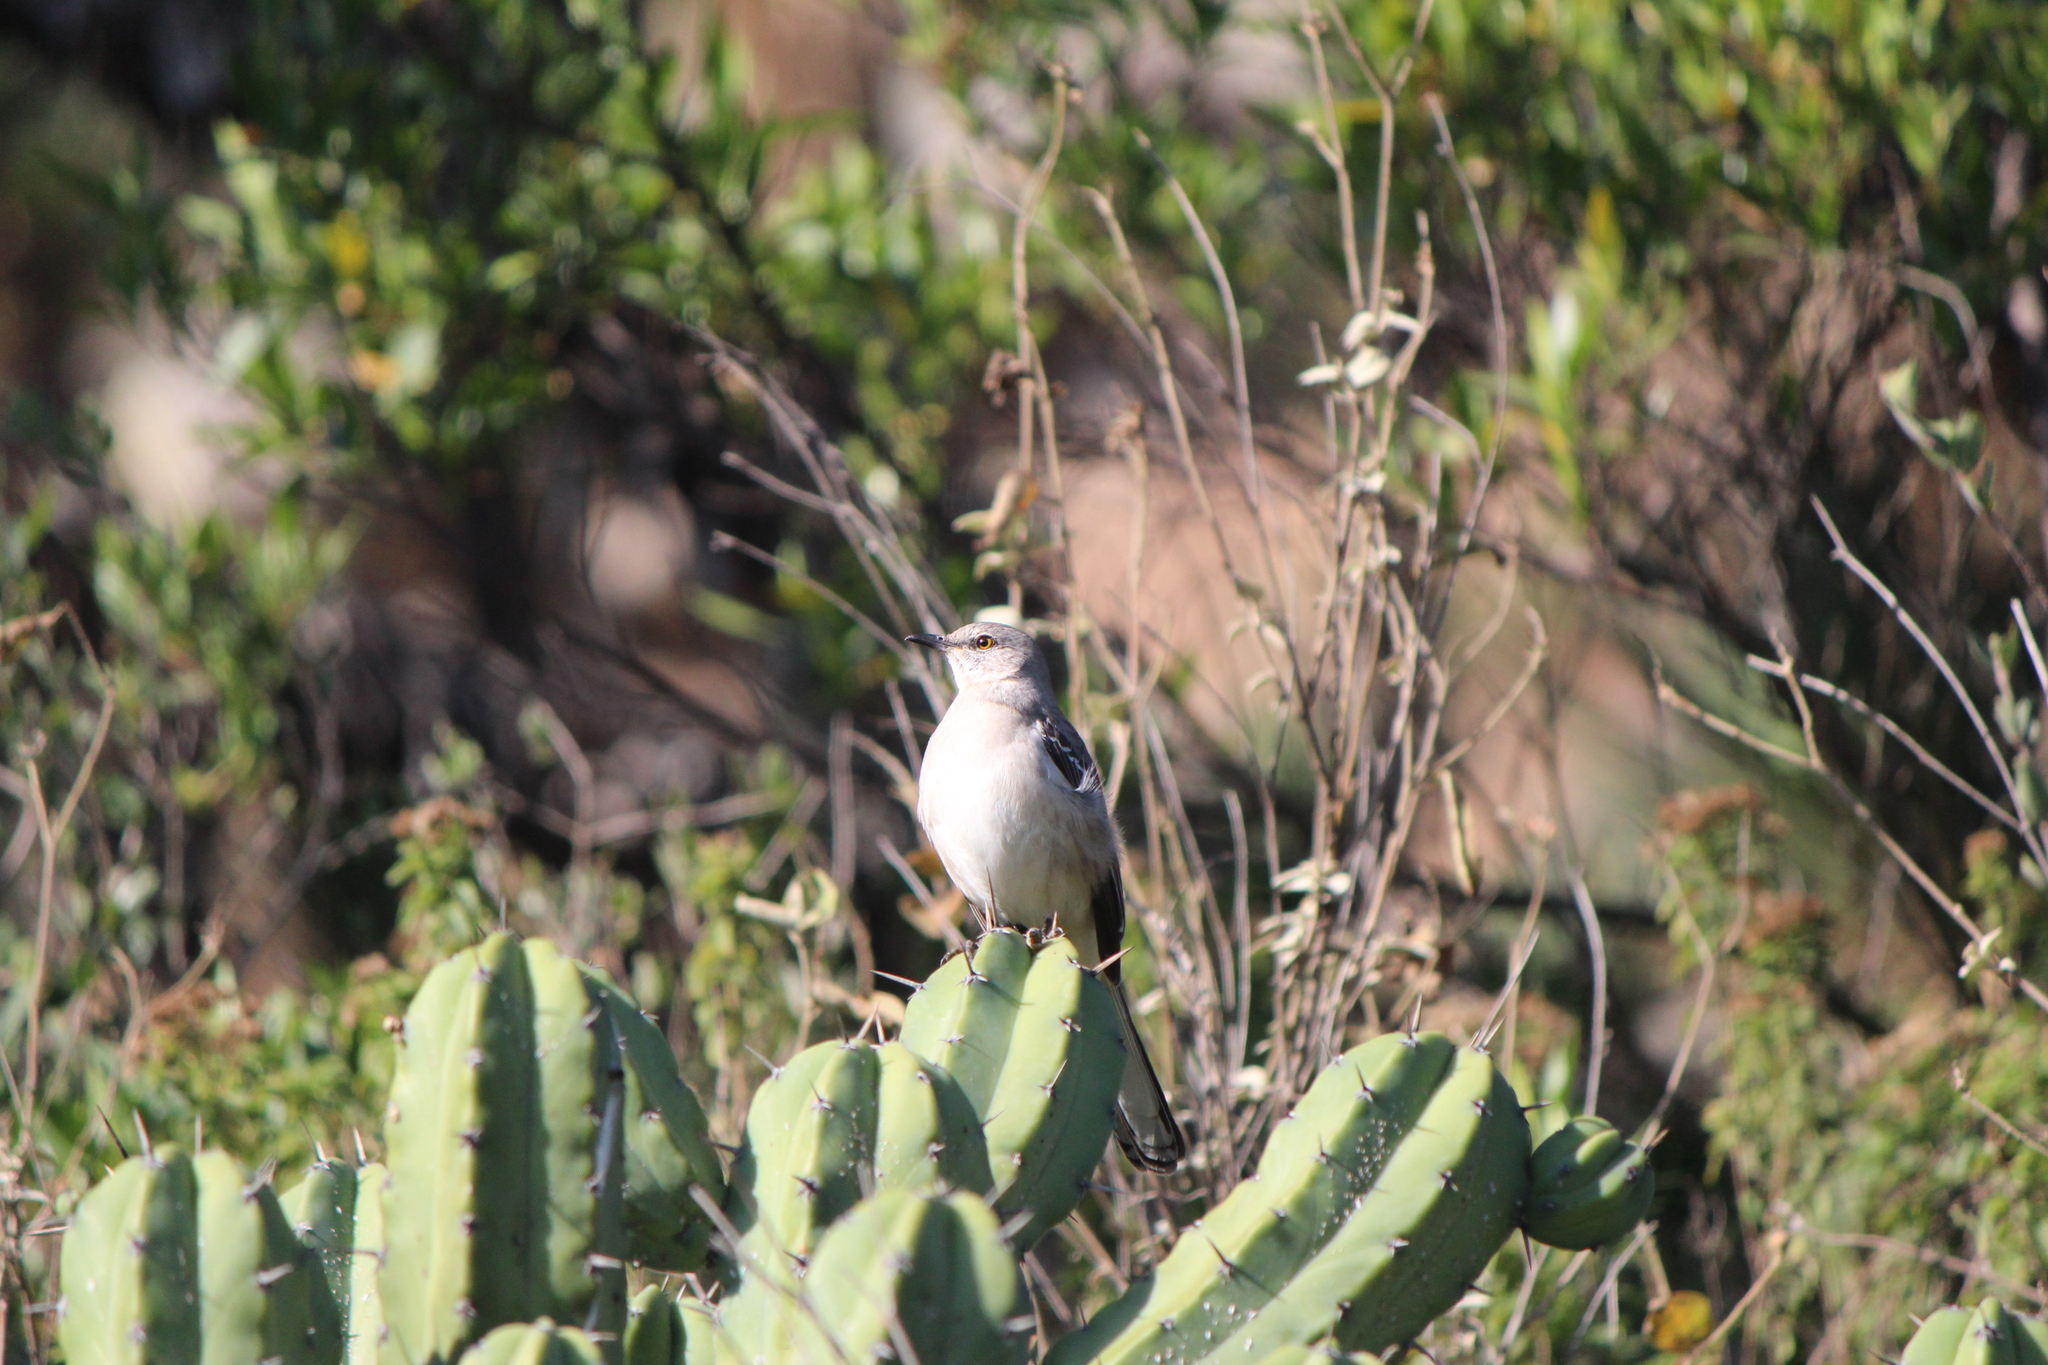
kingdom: Animalia
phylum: Chordata
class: Aves
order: Passeriformes
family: Mimidae
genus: Mimus
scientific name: Mimus polyglottos
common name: Northern mockingbird
